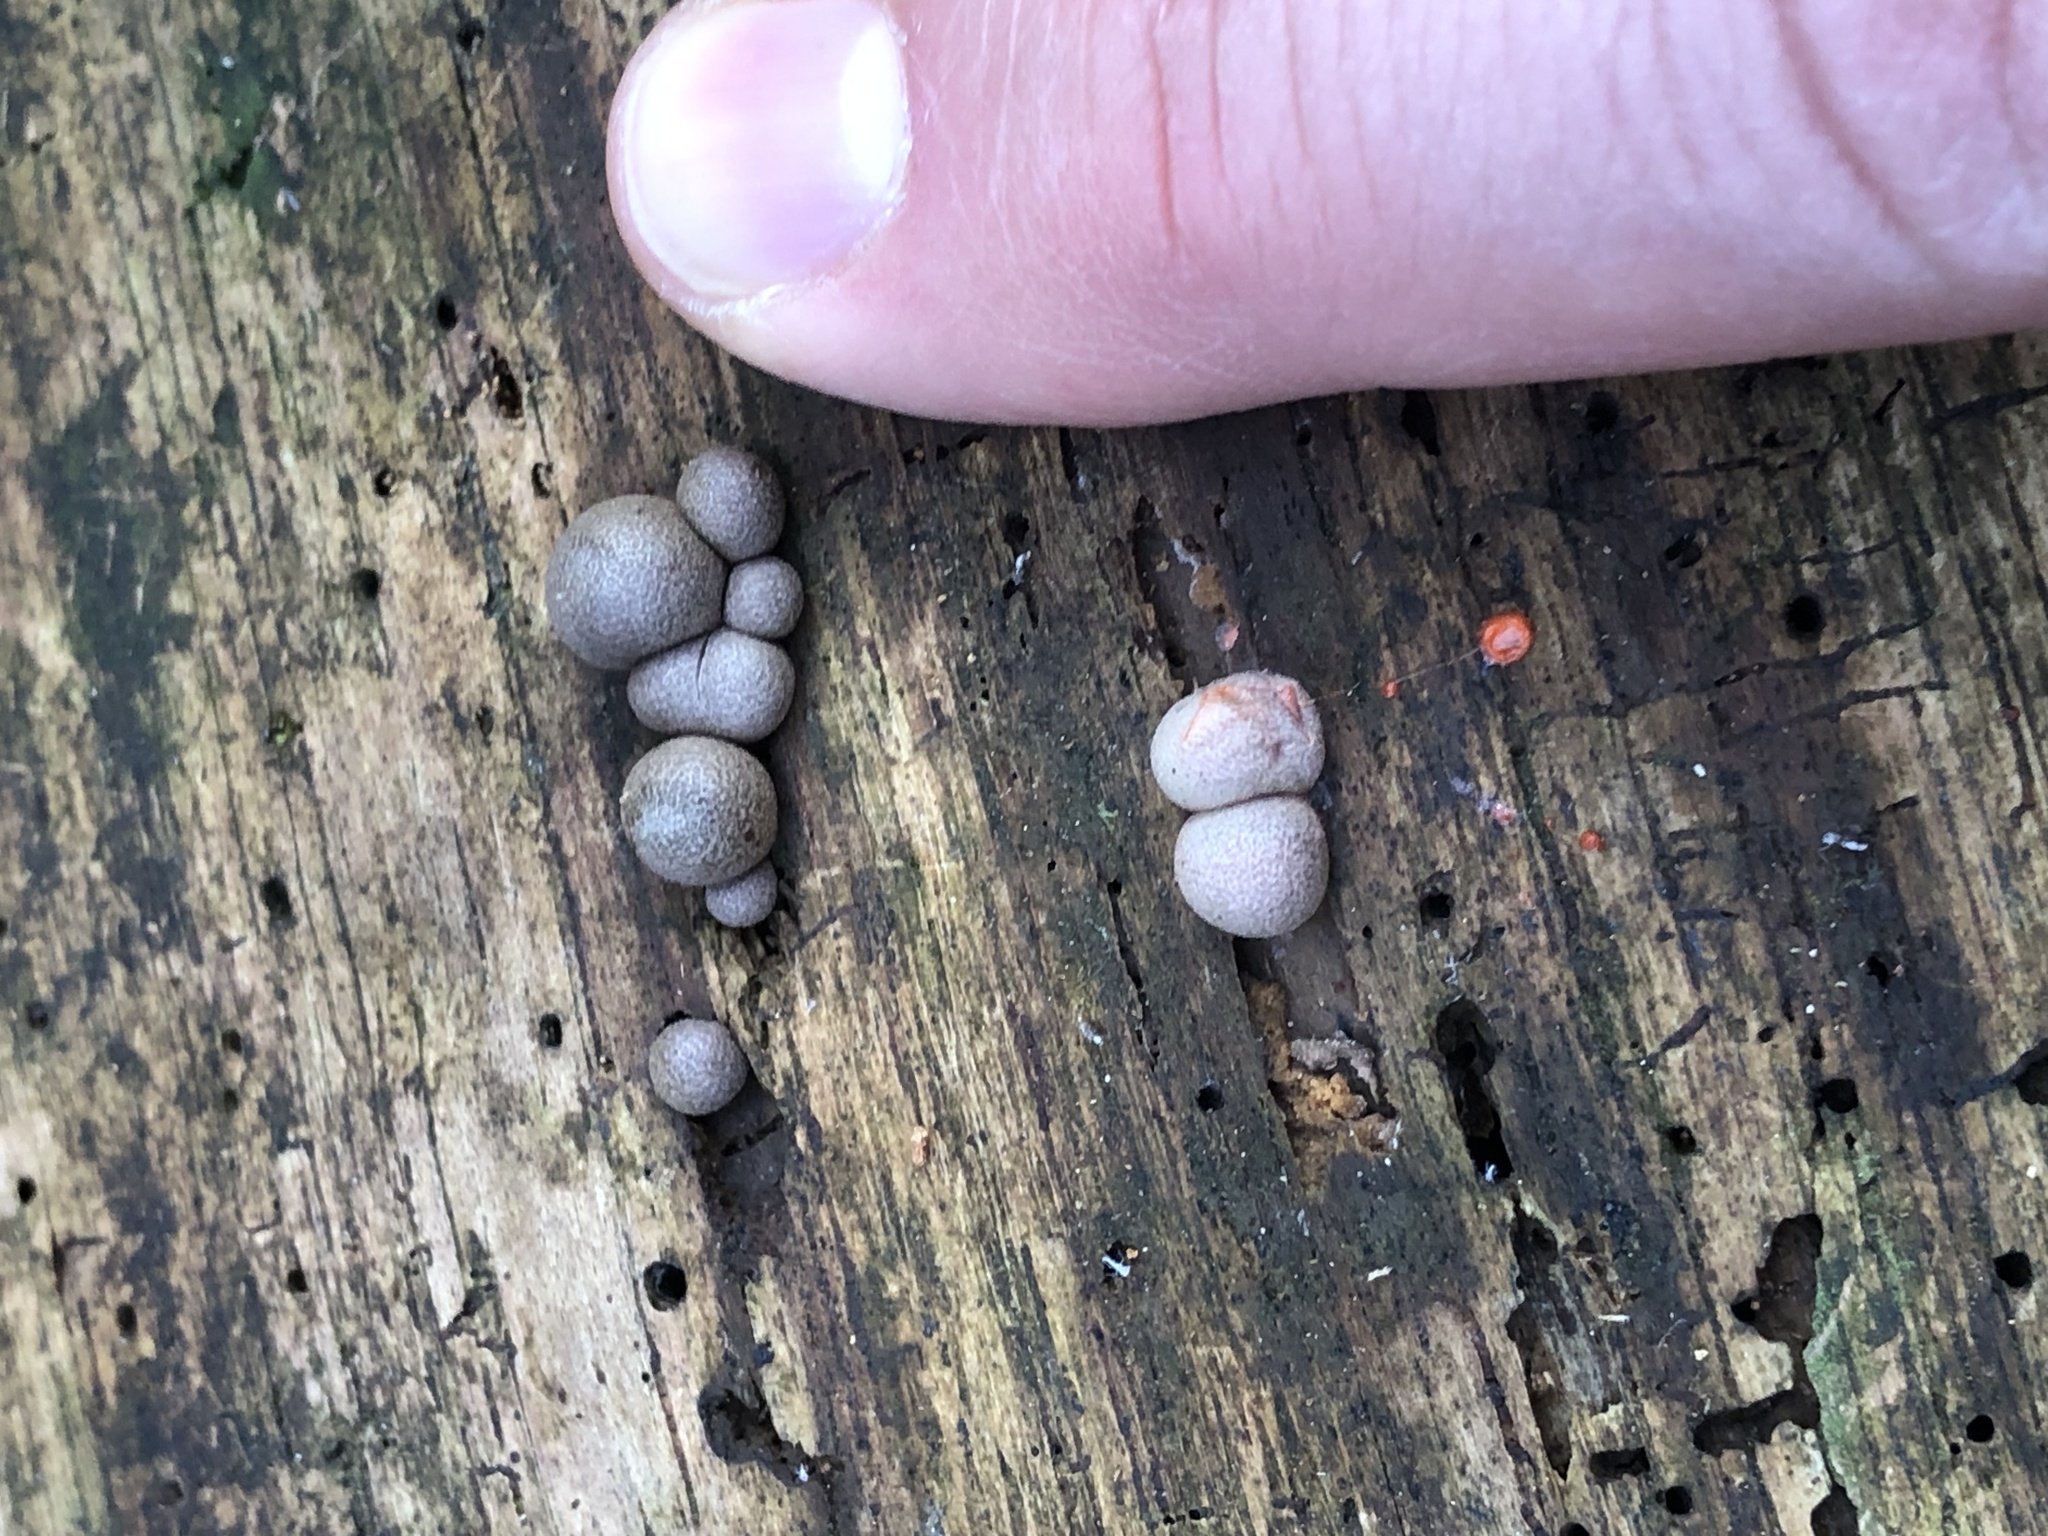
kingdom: Protozoa
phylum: Mycetozoa
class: Myxomycetes
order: Cribrariales
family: Tubiferaceae
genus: Lycogala
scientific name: Lycogala epidendrum
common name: Wolf's milk
